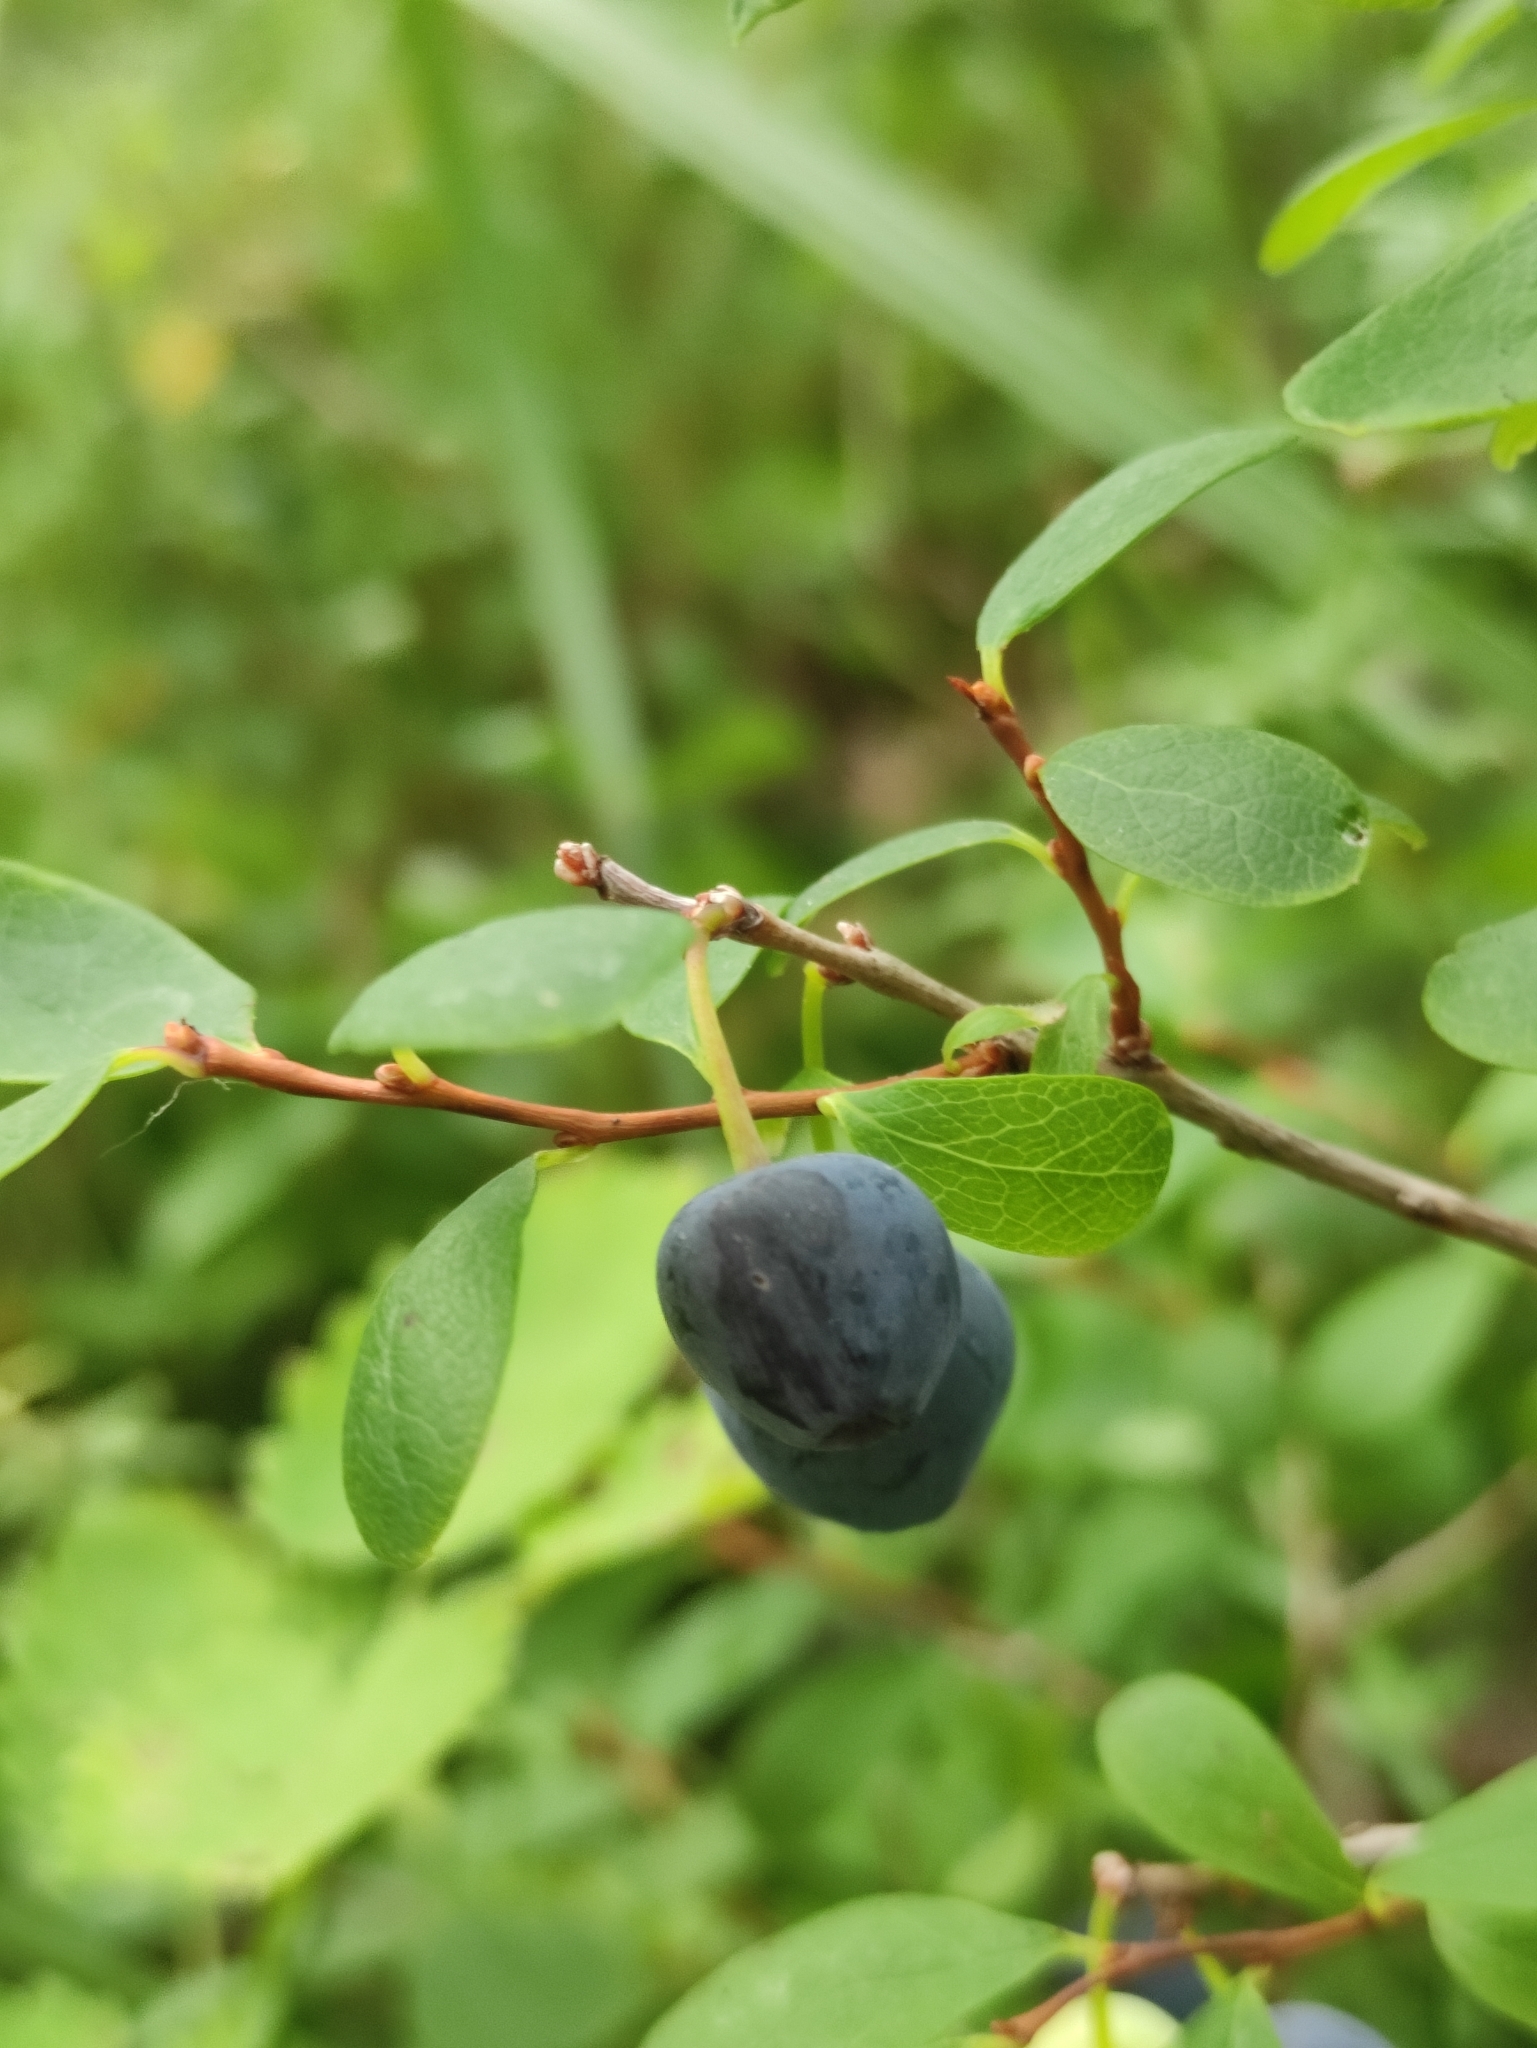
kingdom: Plantae
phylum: Tracheophyta
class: Magnoliopsida
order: Ericales
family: Ericaceae
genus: Vaccinium
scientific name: Vaccinium uliginosum
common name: Bog bilberry
